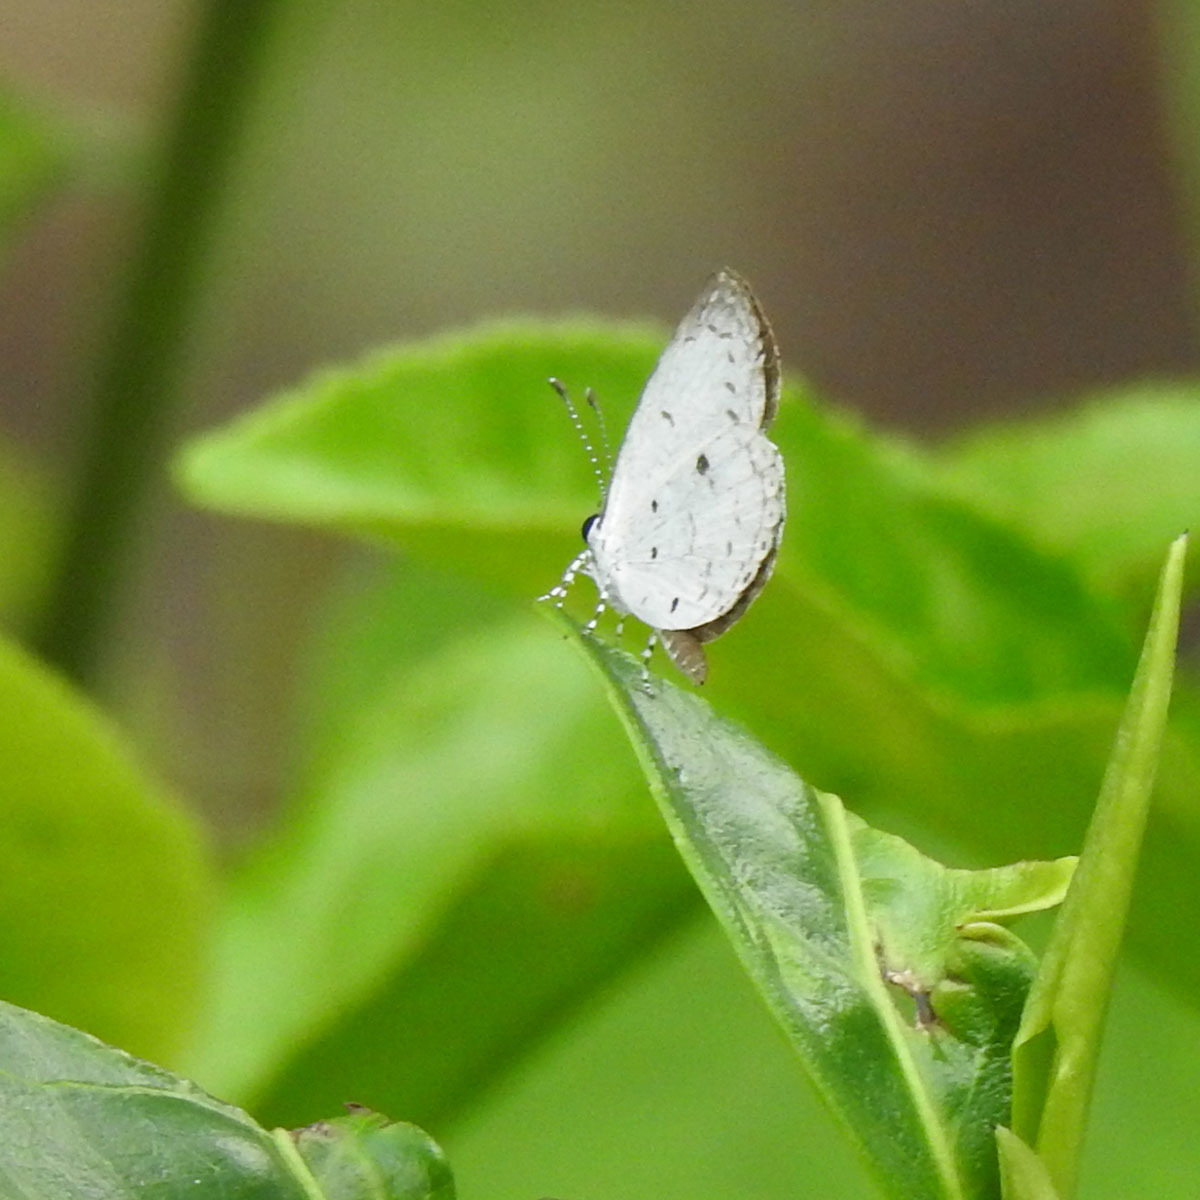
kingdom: Animalia
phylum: Arthropoda
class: Insecta
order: Lepidoptera
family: Lycaenidae
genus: Neopithecops
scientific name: Neopithecops zalmora
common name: Quaker
